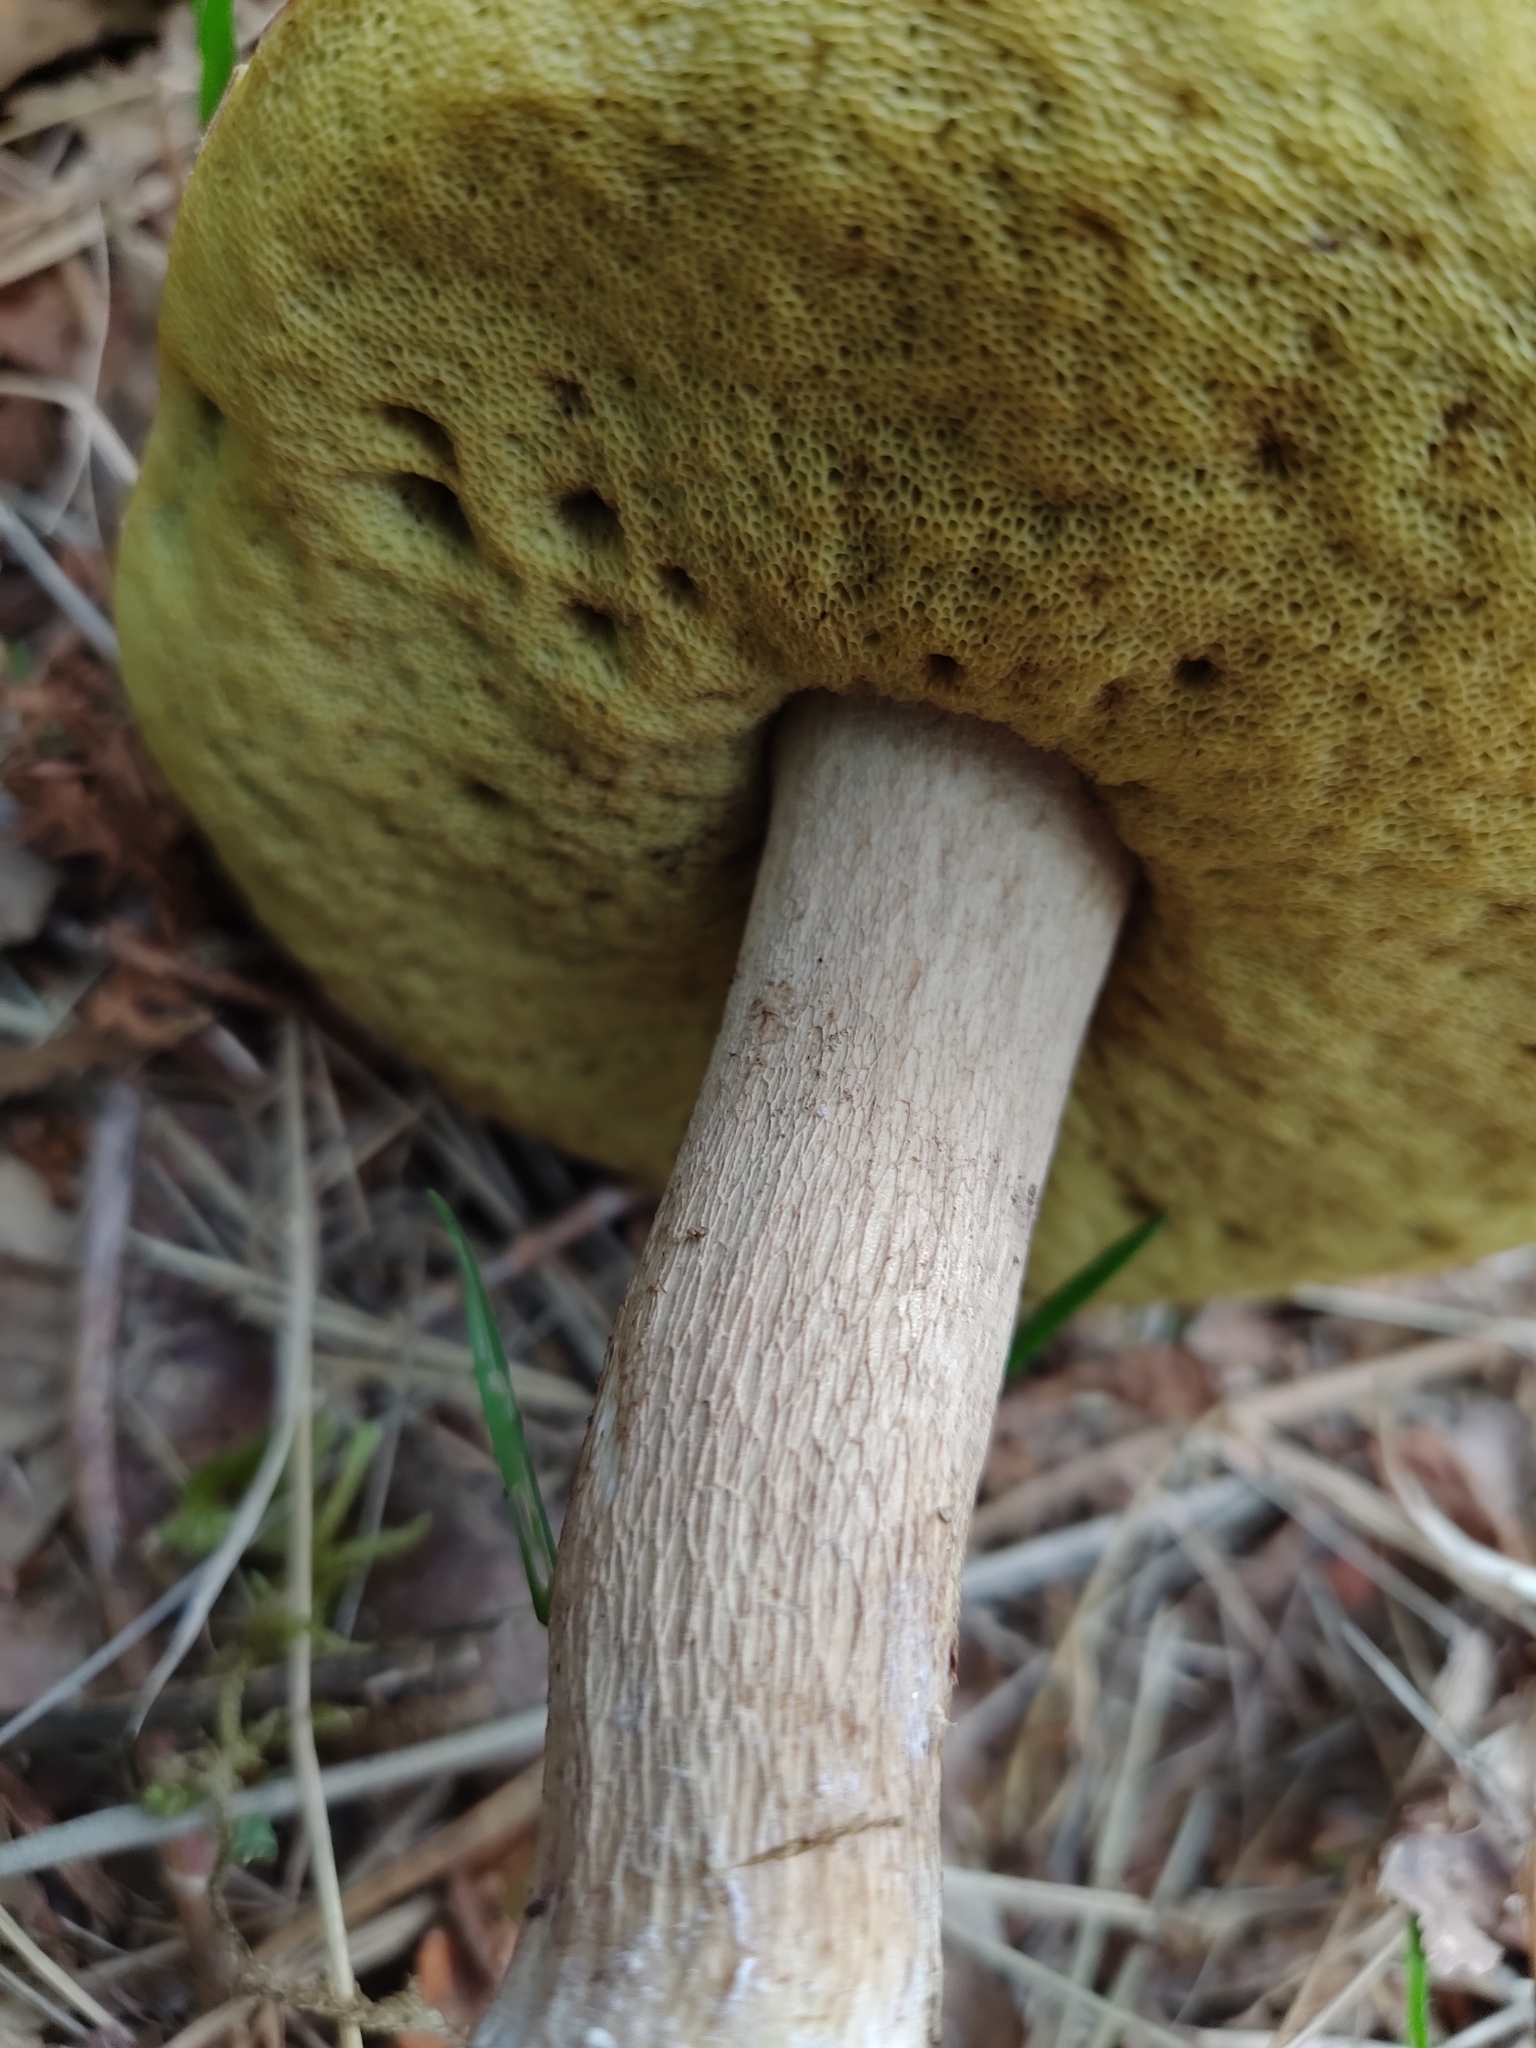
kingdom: Fungi
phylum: Basidiomycota
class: Agaricomycetes
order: Boletales
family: Boletaceae
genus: Boletus
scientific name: Boletus reticulatus
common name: Summer bolete
